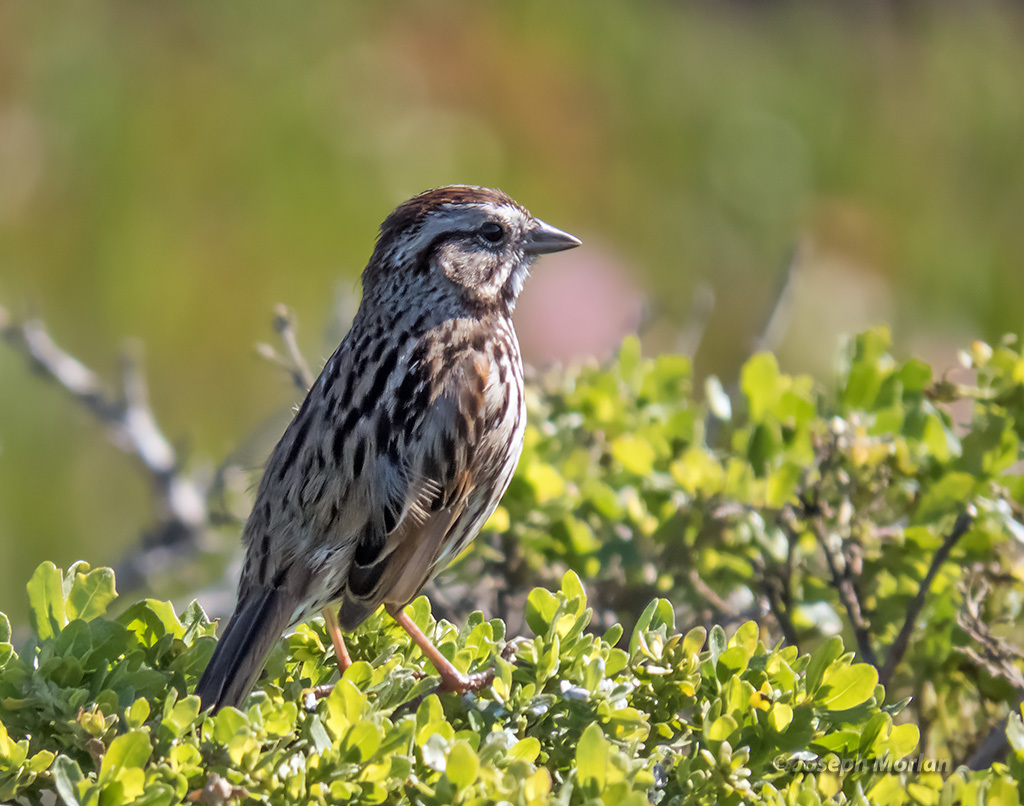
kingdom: Animalia
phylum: Chordata
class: Aves
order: Passeriformes
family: Passerellidae
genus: Melospiza
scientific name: Melospiza melodia
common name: Song sparrow
